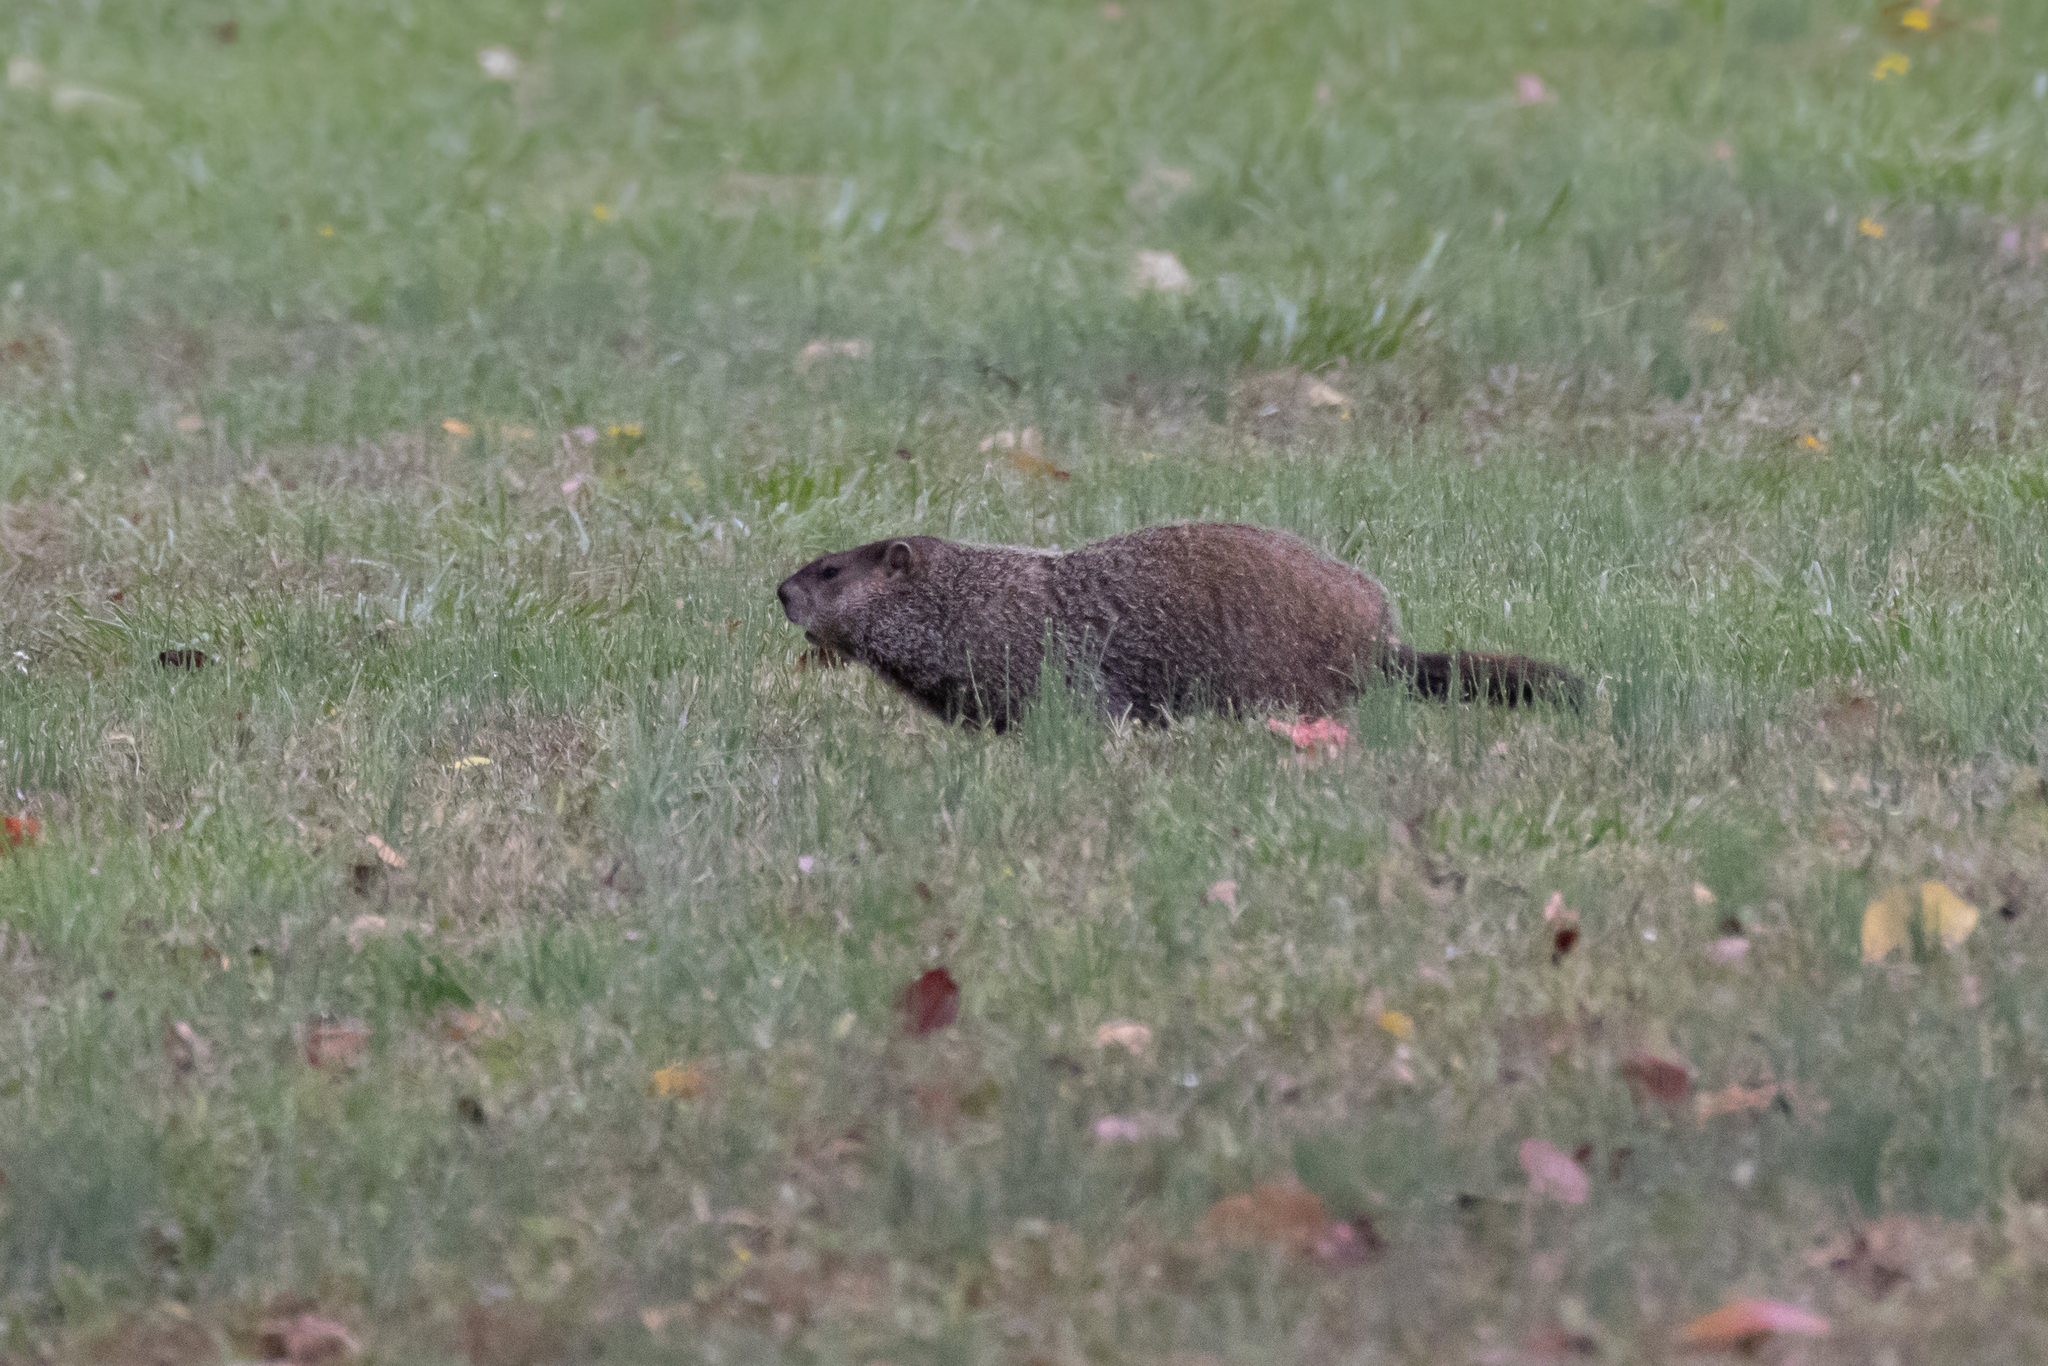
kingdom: Animalia
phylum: Chordata
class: Mammalia
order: Rodentia
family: Sciuridae
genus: Marmota
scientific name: Marmota monax
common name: Groundhog
